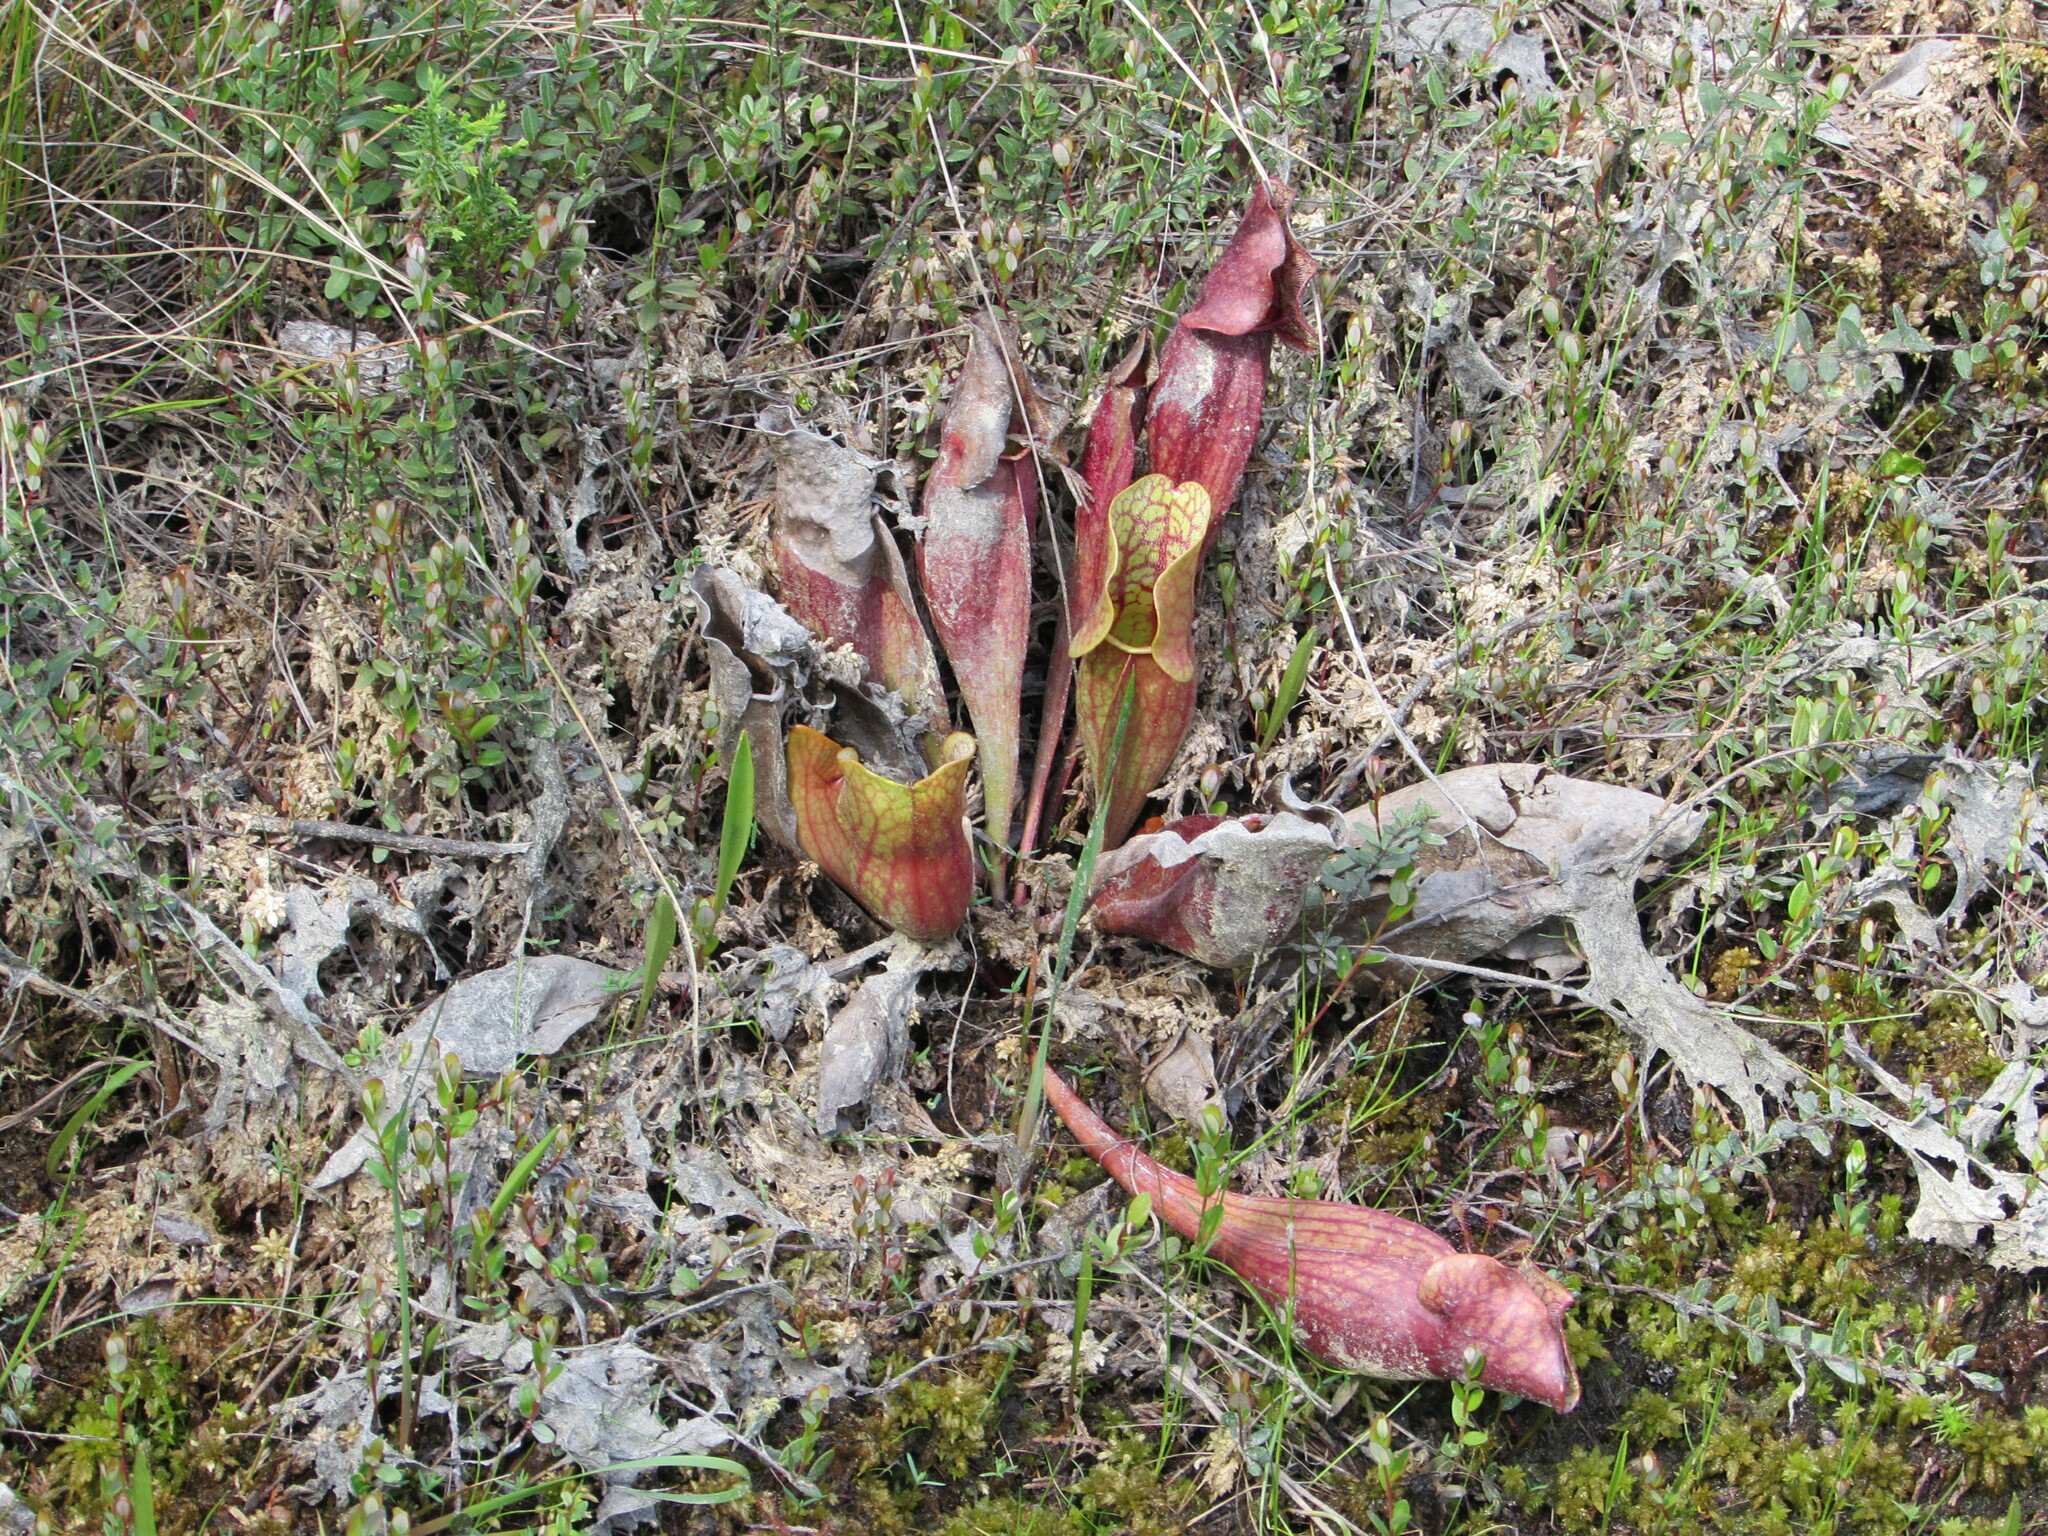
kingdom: Plantae
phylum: Tracheophyta
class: Magnoliopsida
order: Ericales
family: Sarraceniaceae
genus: Sarracenia
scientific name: Sarracenia purpurea
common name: Pitcherplant
